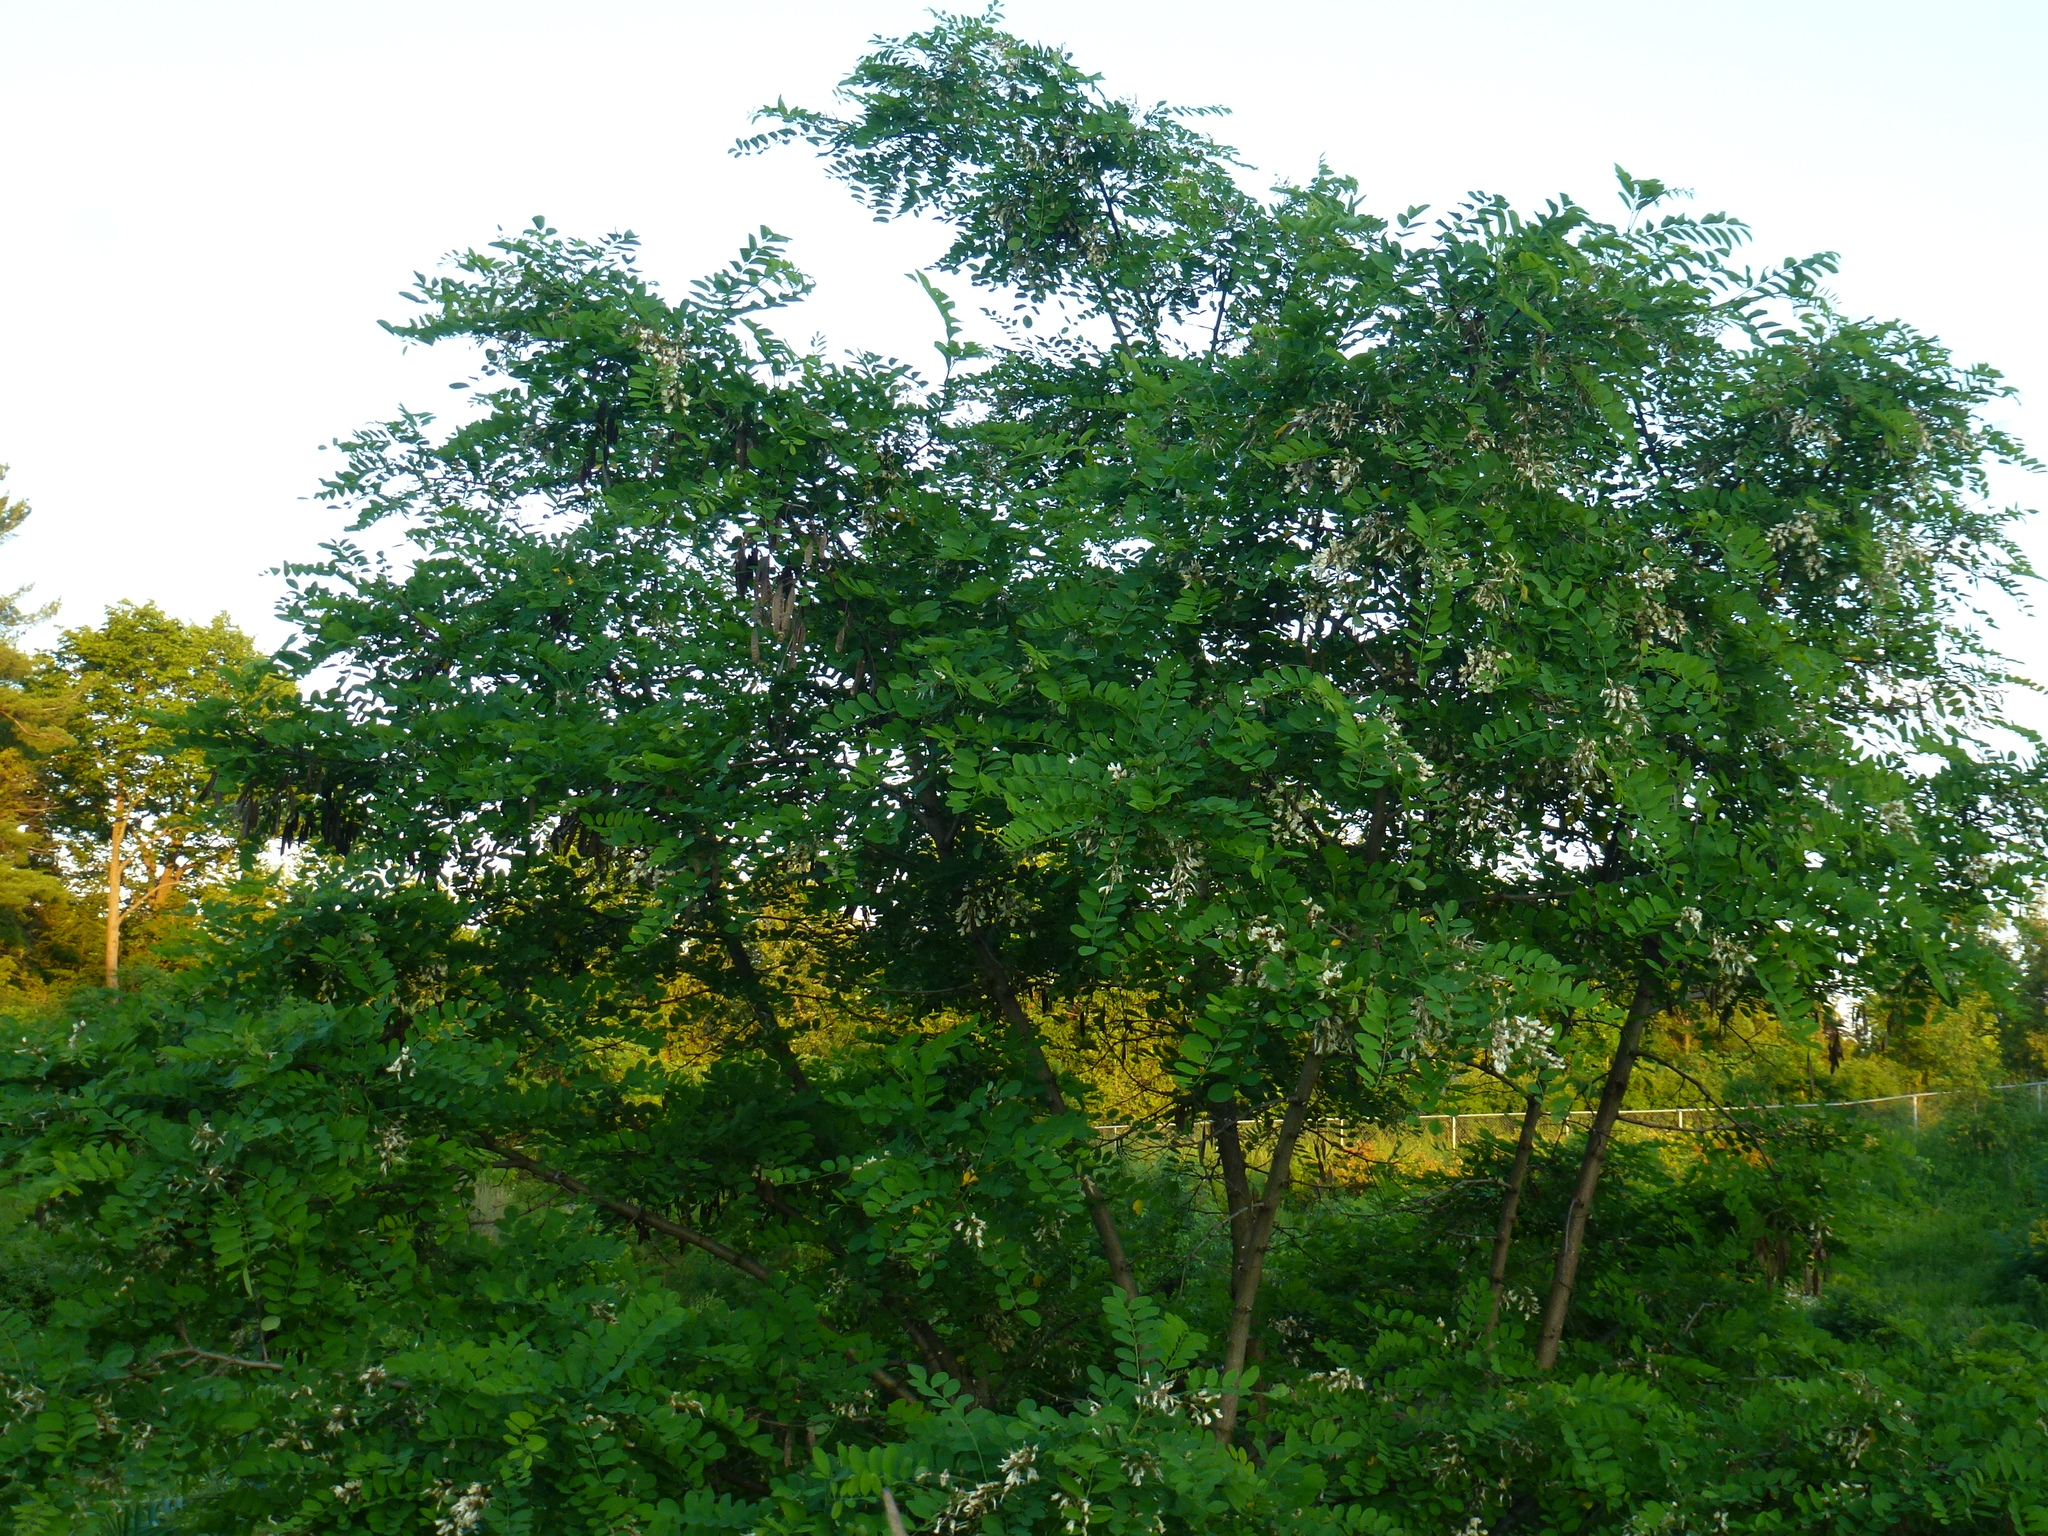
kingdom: Plantae
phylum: Tracheophyta
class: Magnoliopsida
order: Fabales
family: Fabaceae
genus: Robinia
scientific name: Robinia pseudoacacia
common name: Black locust
